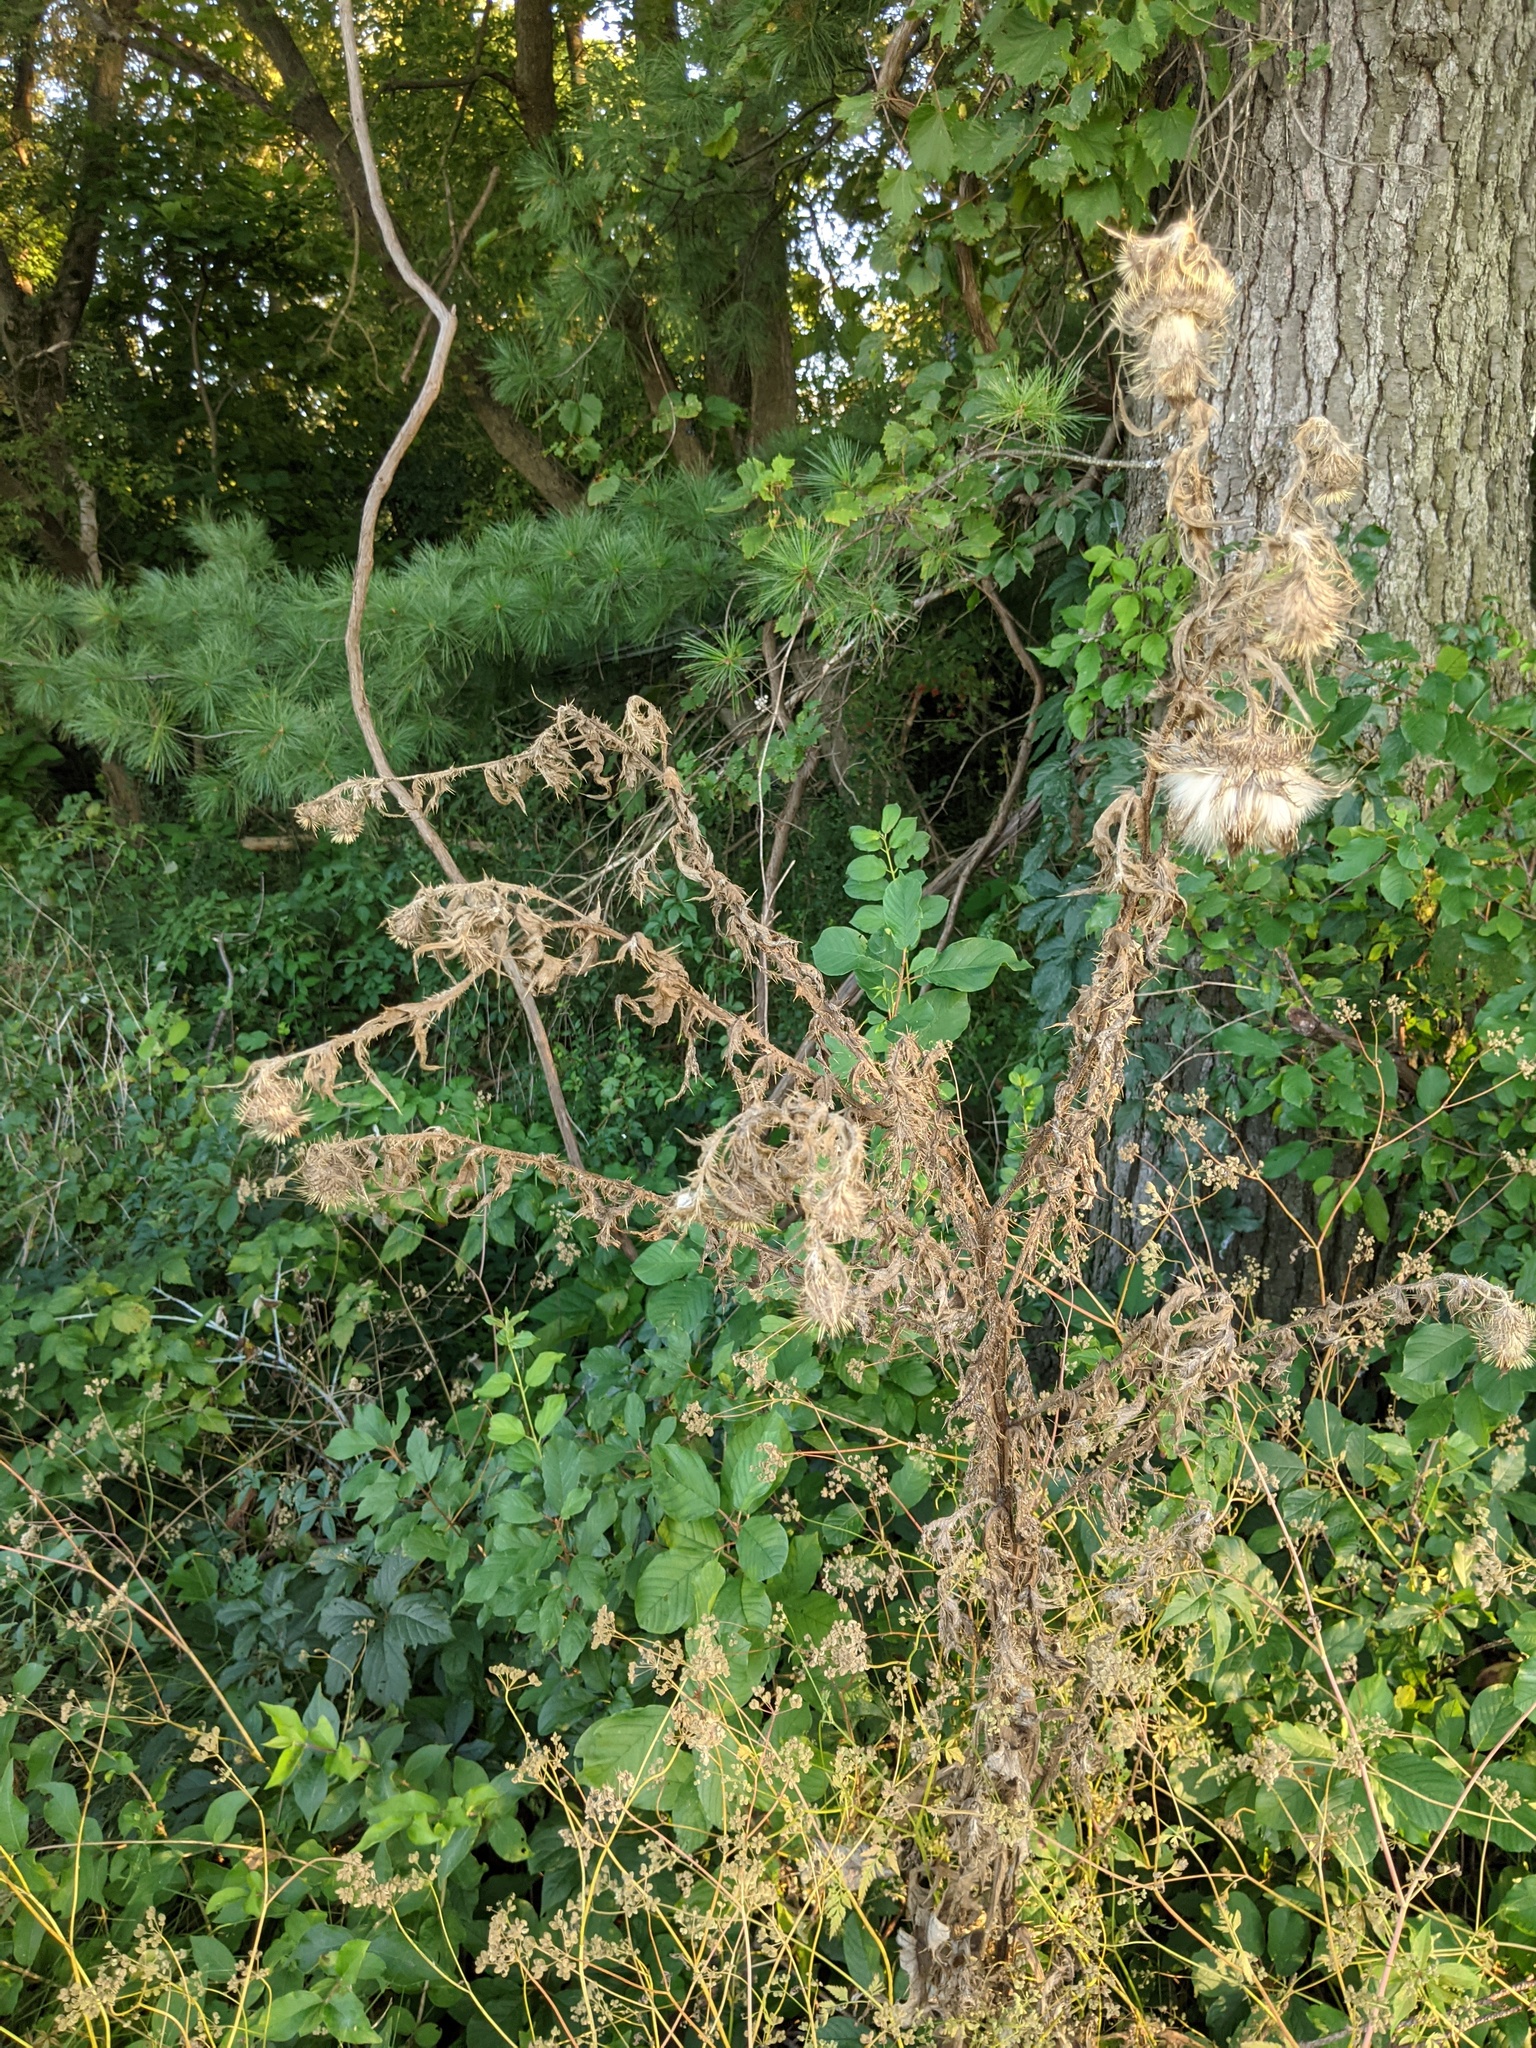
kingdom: Plantae
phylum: Tracheophyta
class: Magnoliopsida
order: Asterales
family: Asteraceae
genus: Cirsium
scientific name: Cirsium vulgare
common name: Bull thistle
